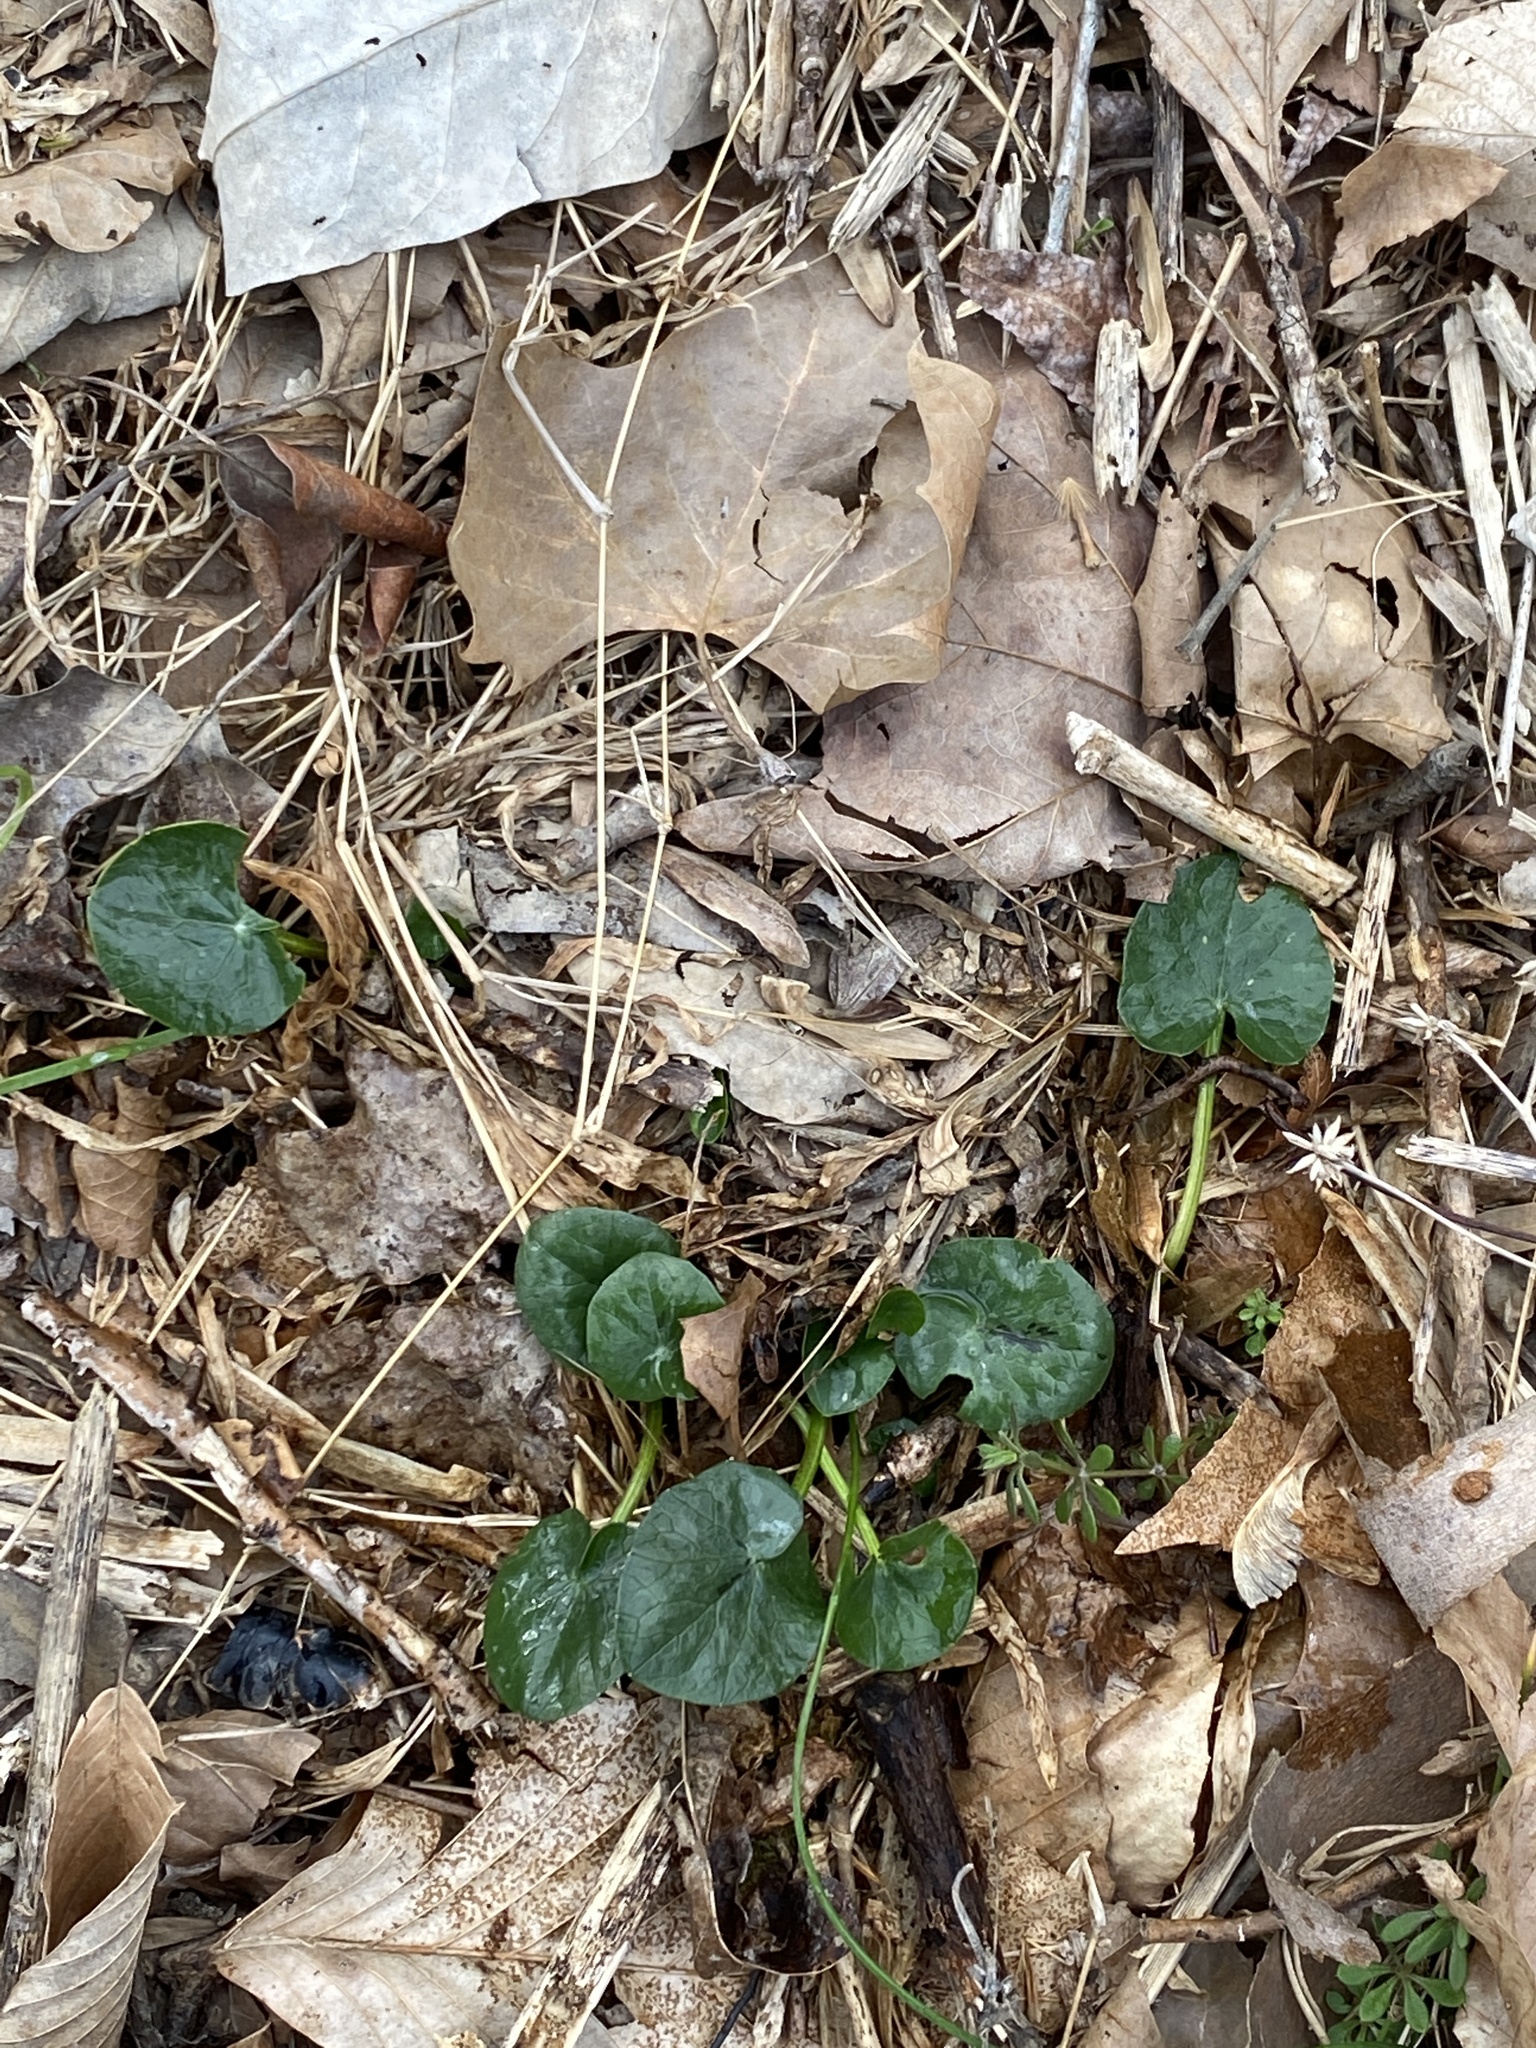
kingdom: Plantae
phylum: Tracheophyta
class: Magnoliopsida
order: Ranunculales
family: Ranunculaceae
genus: Ficaria
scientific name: Ficaria verna
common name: Lesser celandine
